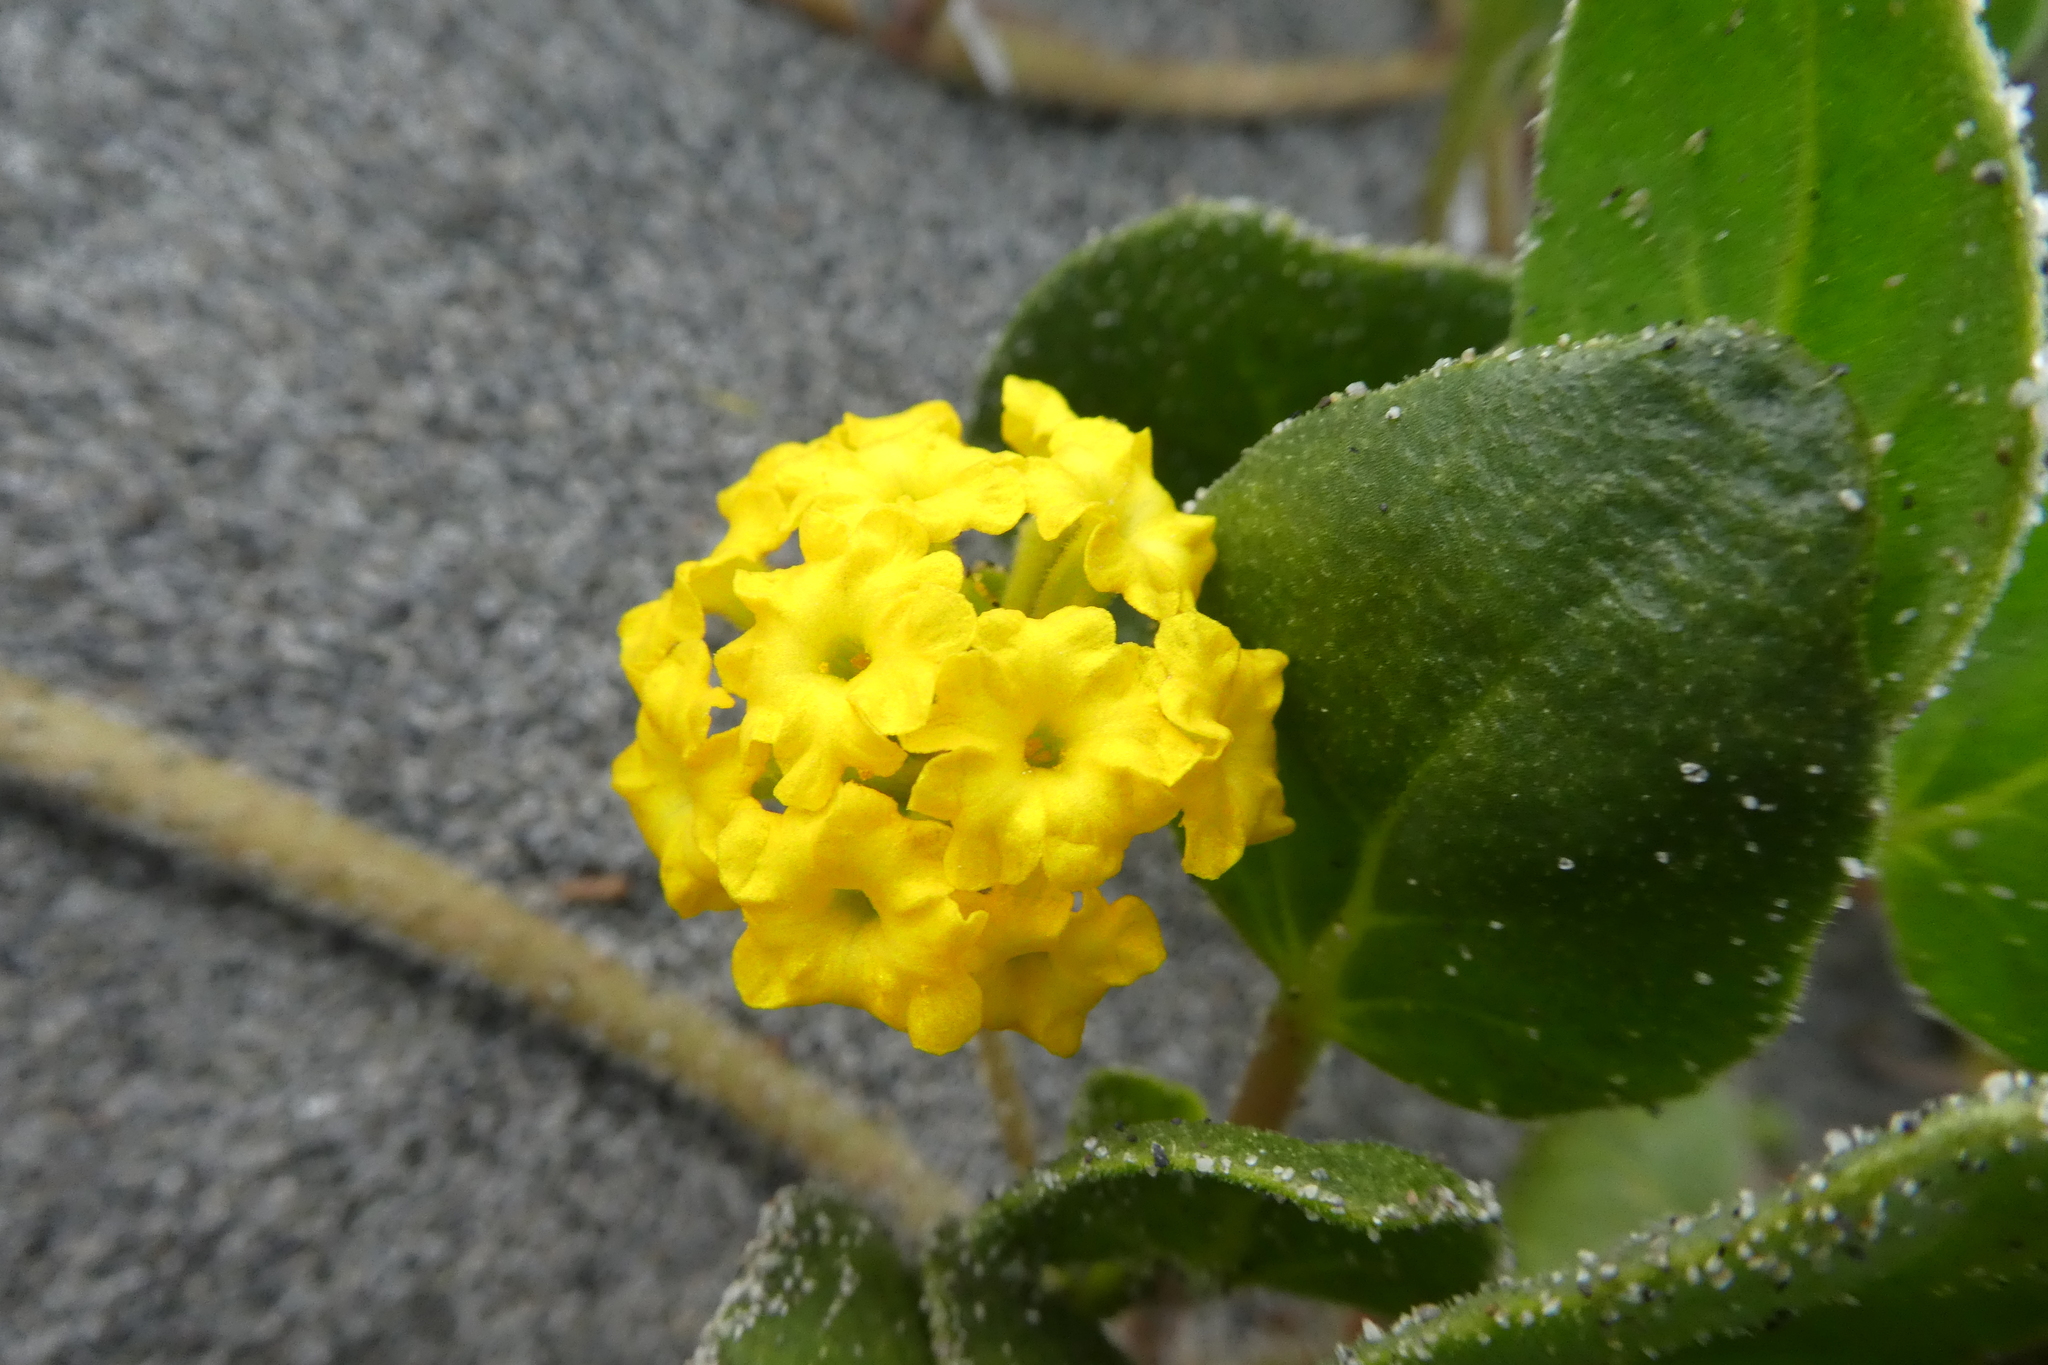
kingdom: Plantae
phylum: Tracheophyta
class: Magnoliopsida
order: Caryophyllales
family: Nyctaginaceae
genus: Abronia
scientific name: Abronia latifolia
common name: Yellow sand-verbena
